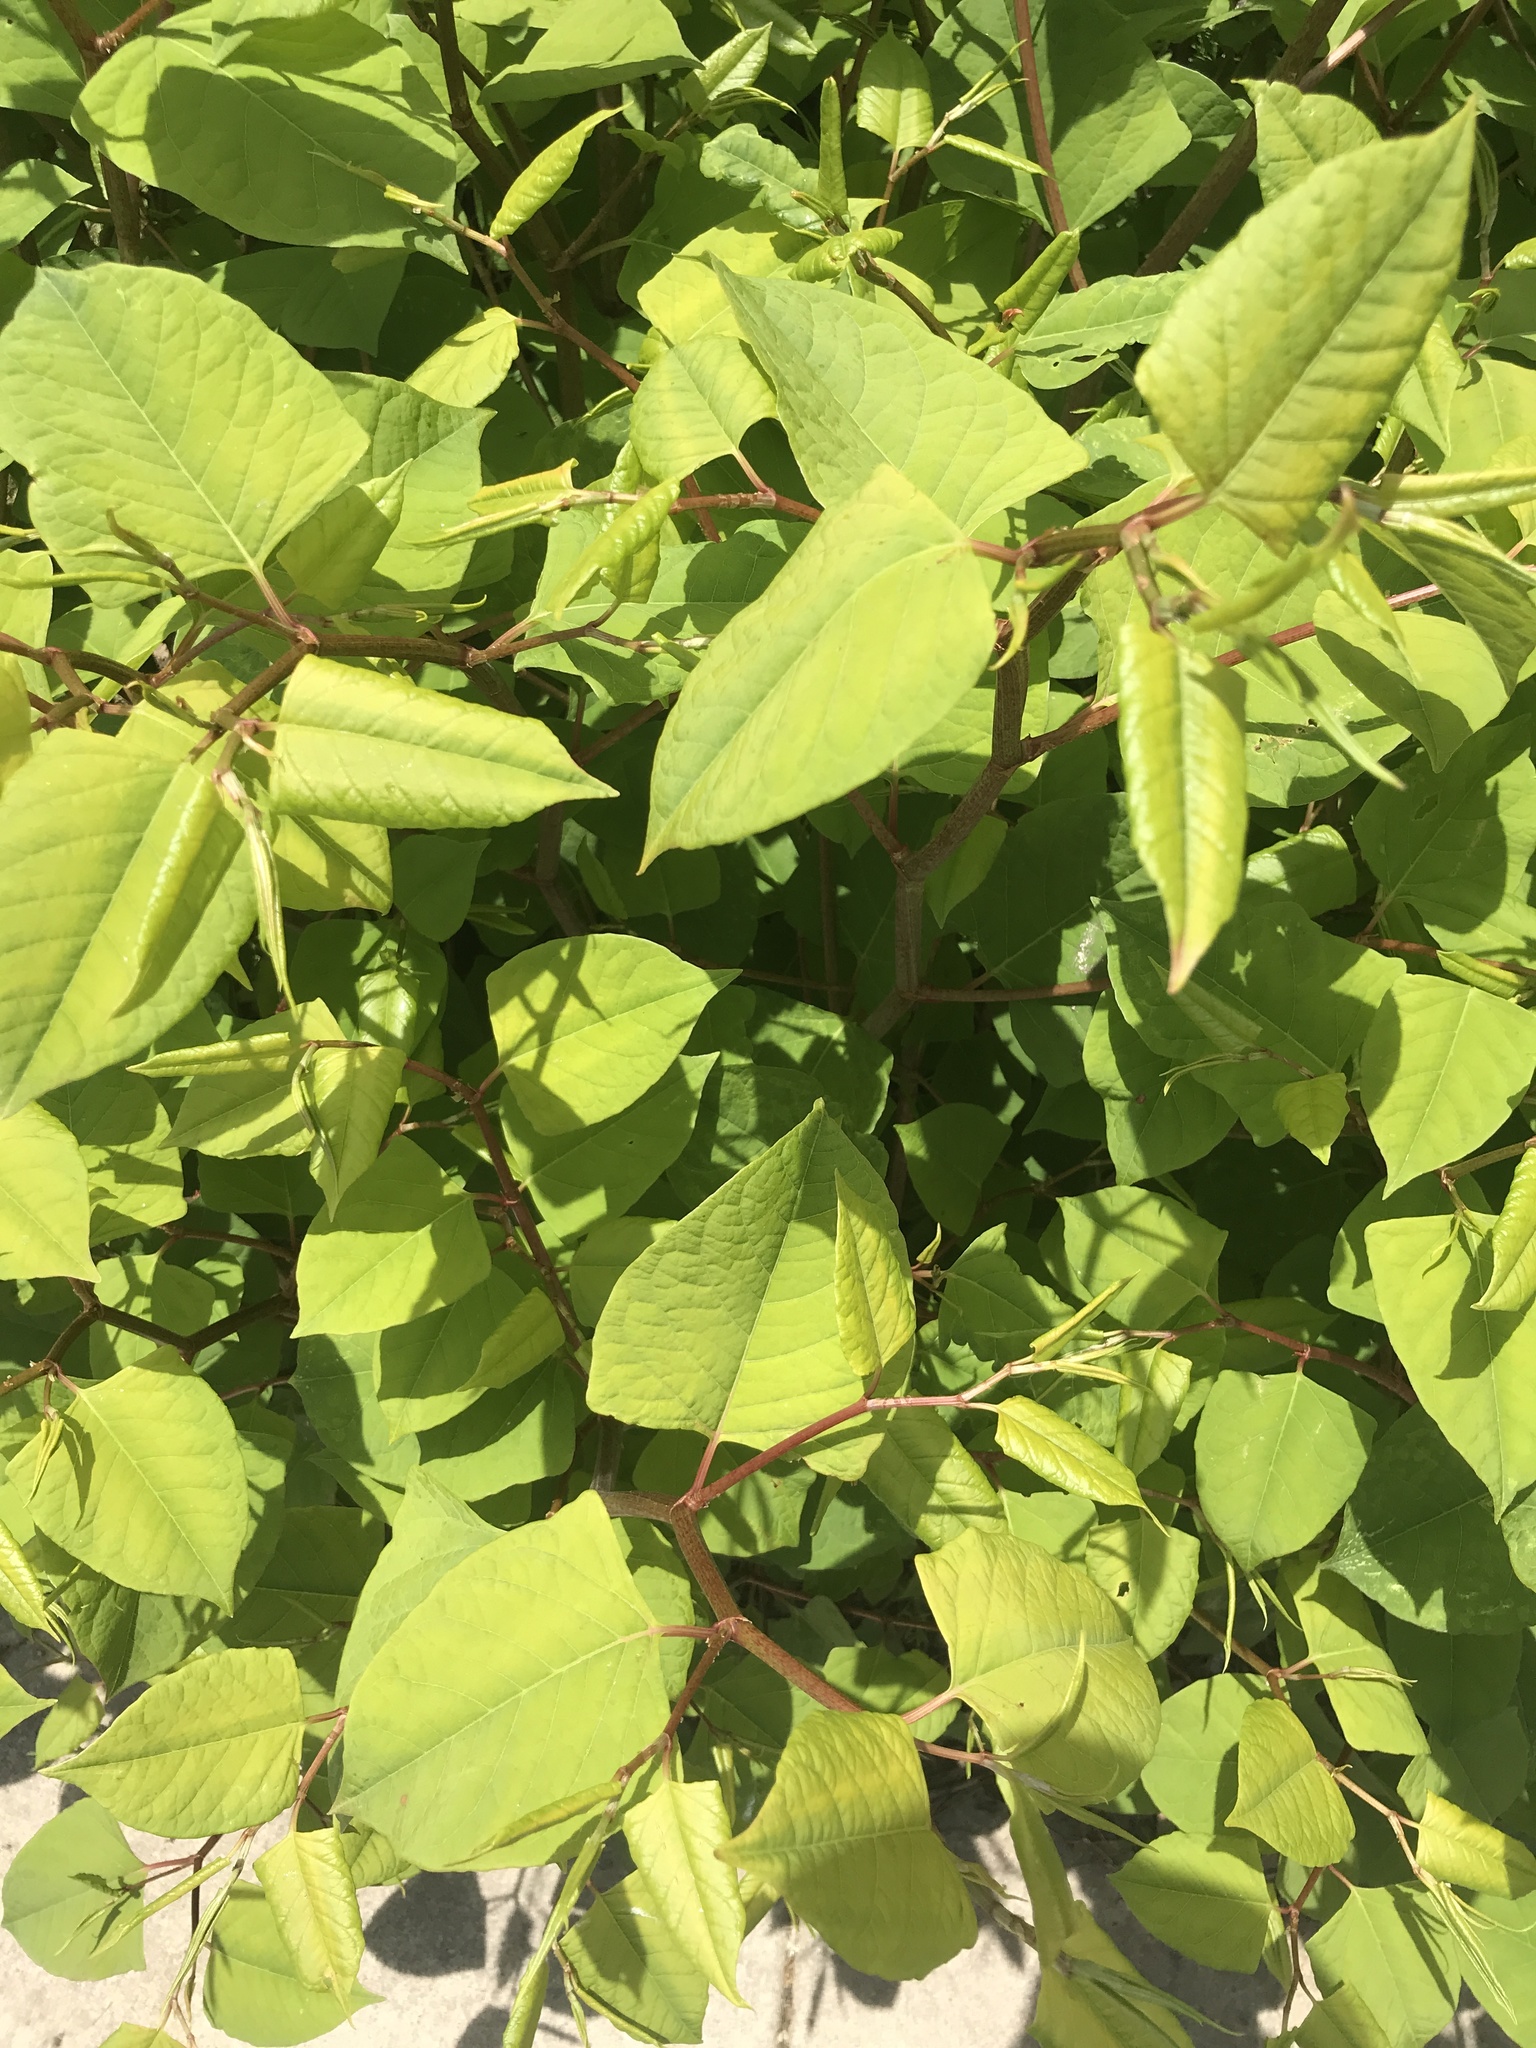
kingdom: Plantae
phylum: Tracheophyta
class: Magnoliopsida
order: Caryophyllales
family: Polygonaceae
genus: Reynoutria
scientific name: Reynoutria japonica
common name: Japanese knotweed
